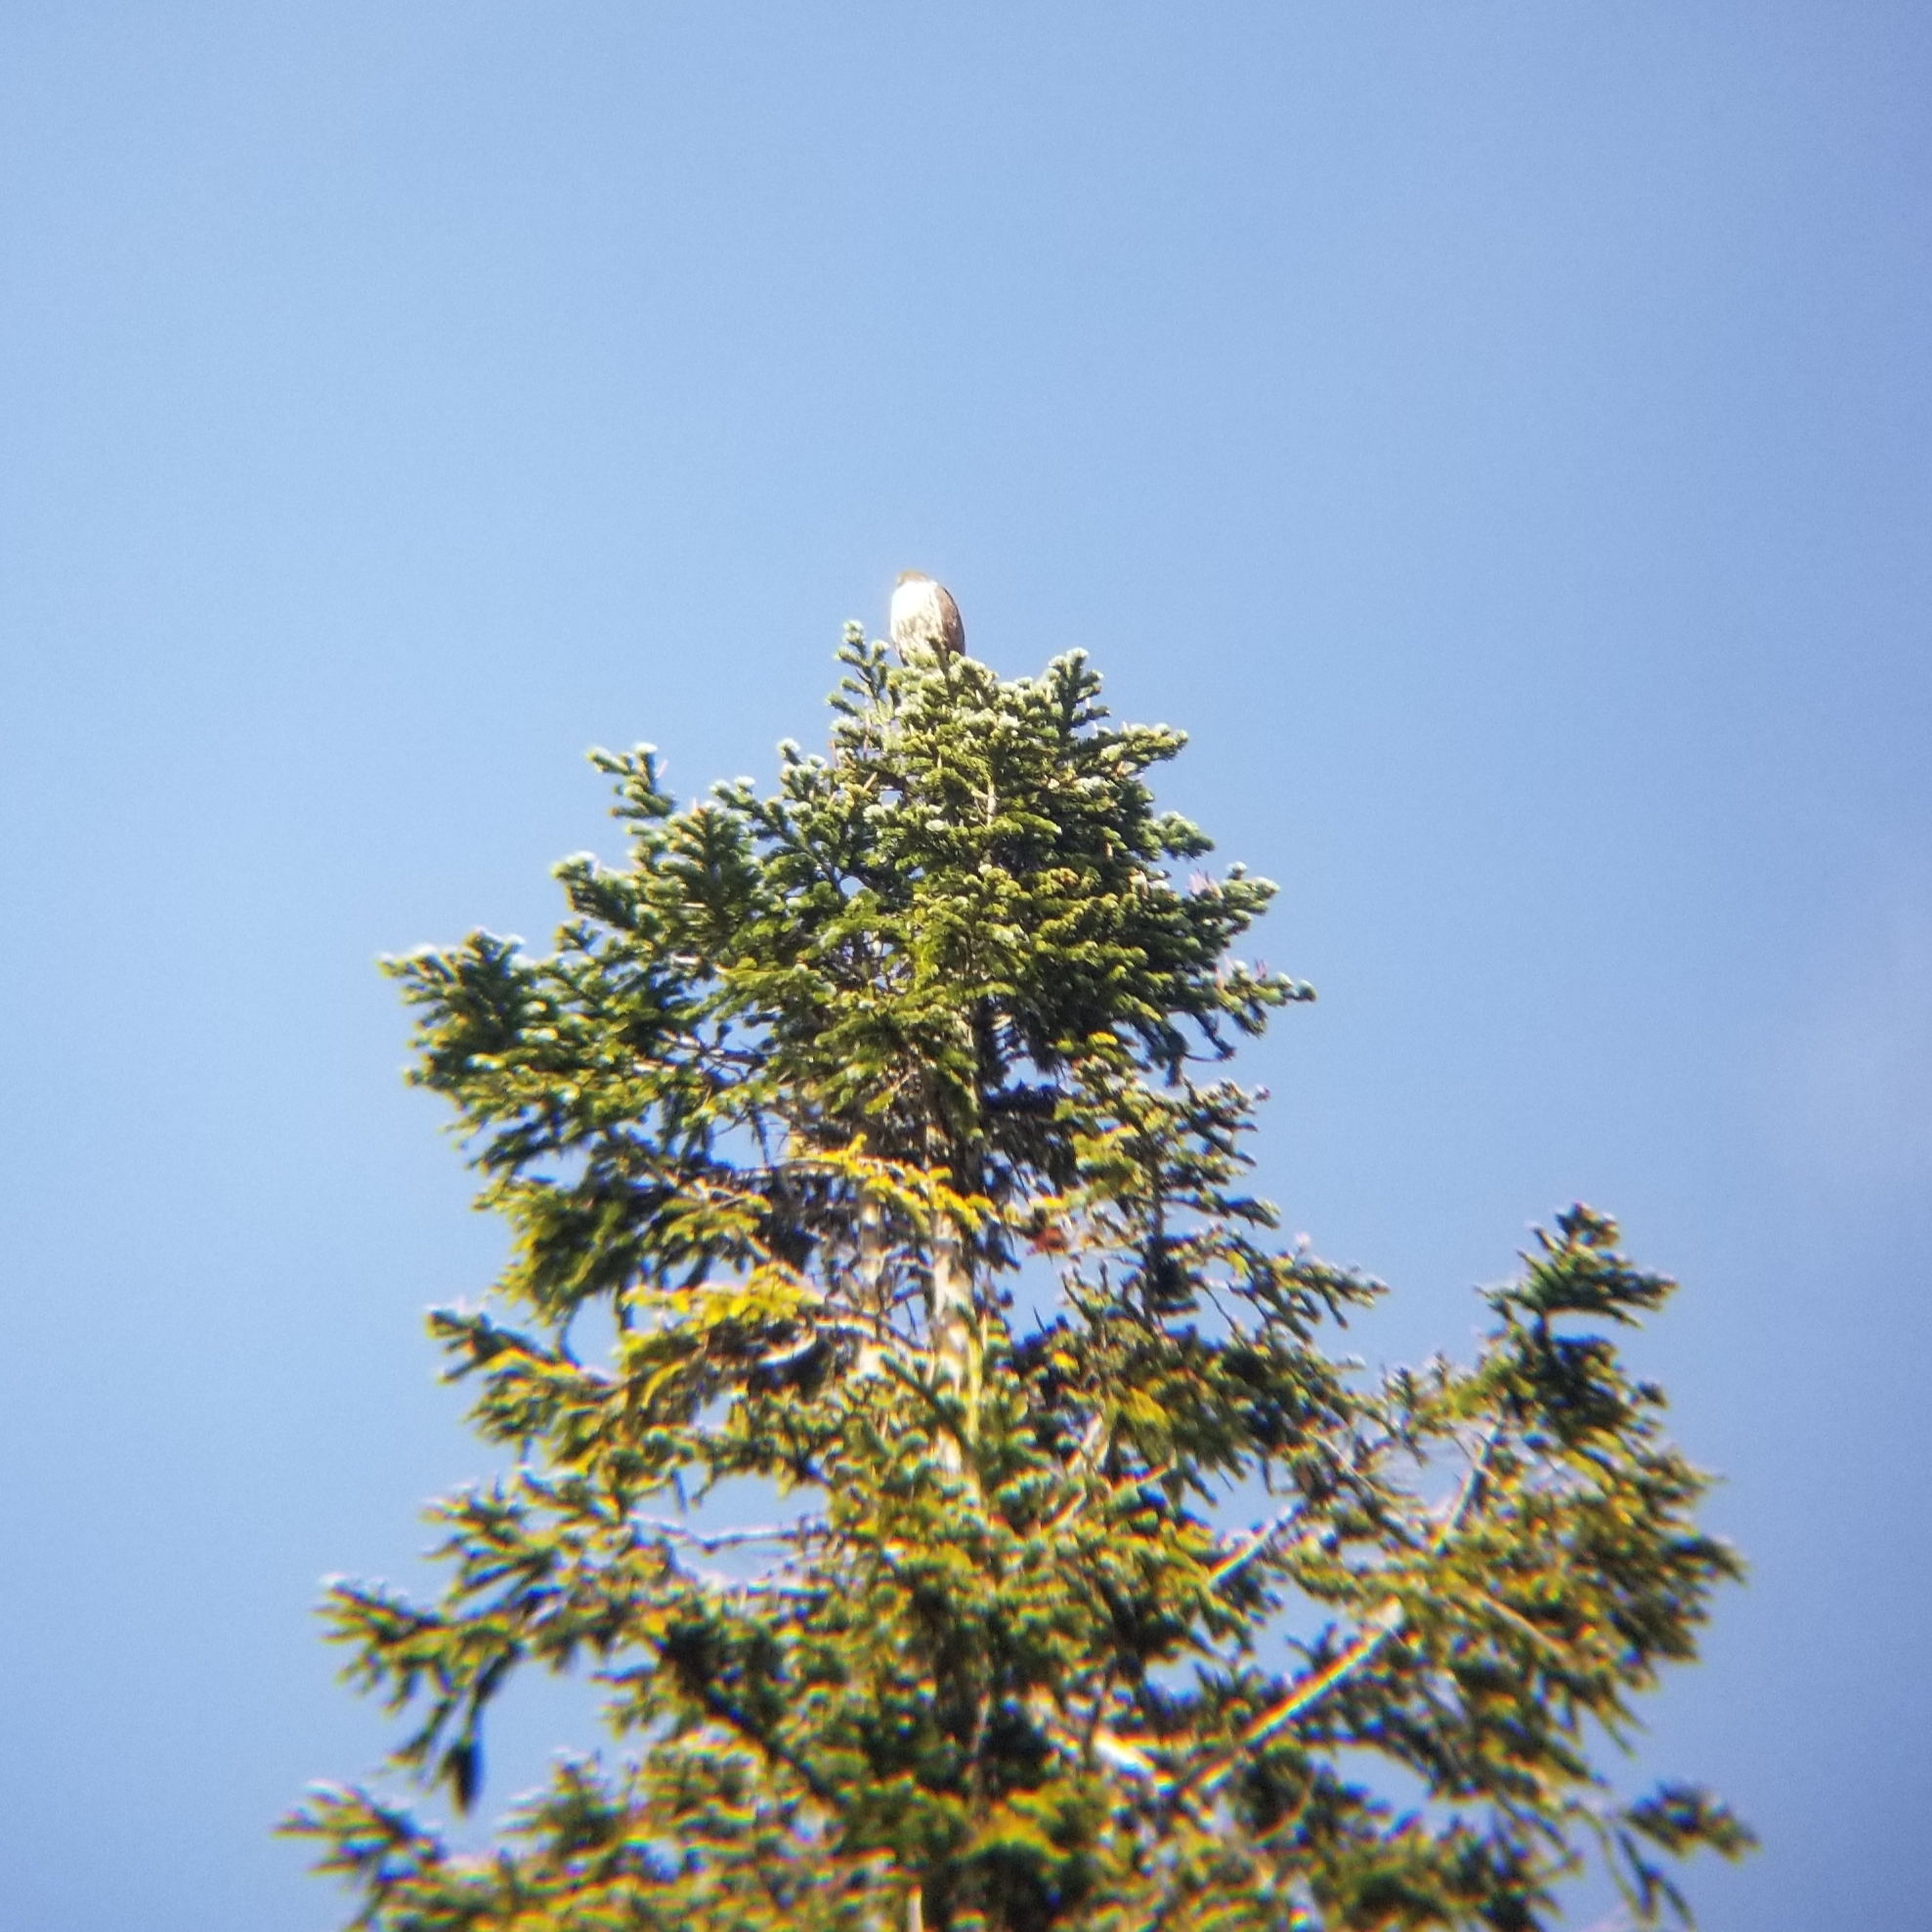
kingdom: Animalia
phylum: Chordata
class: Aves
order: Accipitriformes
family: Accipitridae
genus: Buteo
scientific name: Buteo jamaicensis
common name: Red-tailed hawk
